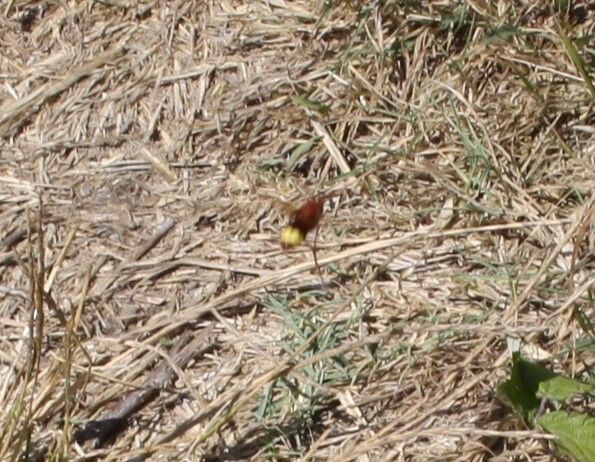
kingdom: Animalia
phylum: Arthropoda
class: Insecta
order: Hymenoptera
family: Vespidae
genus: Vespa
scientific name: Vespa orientalis
